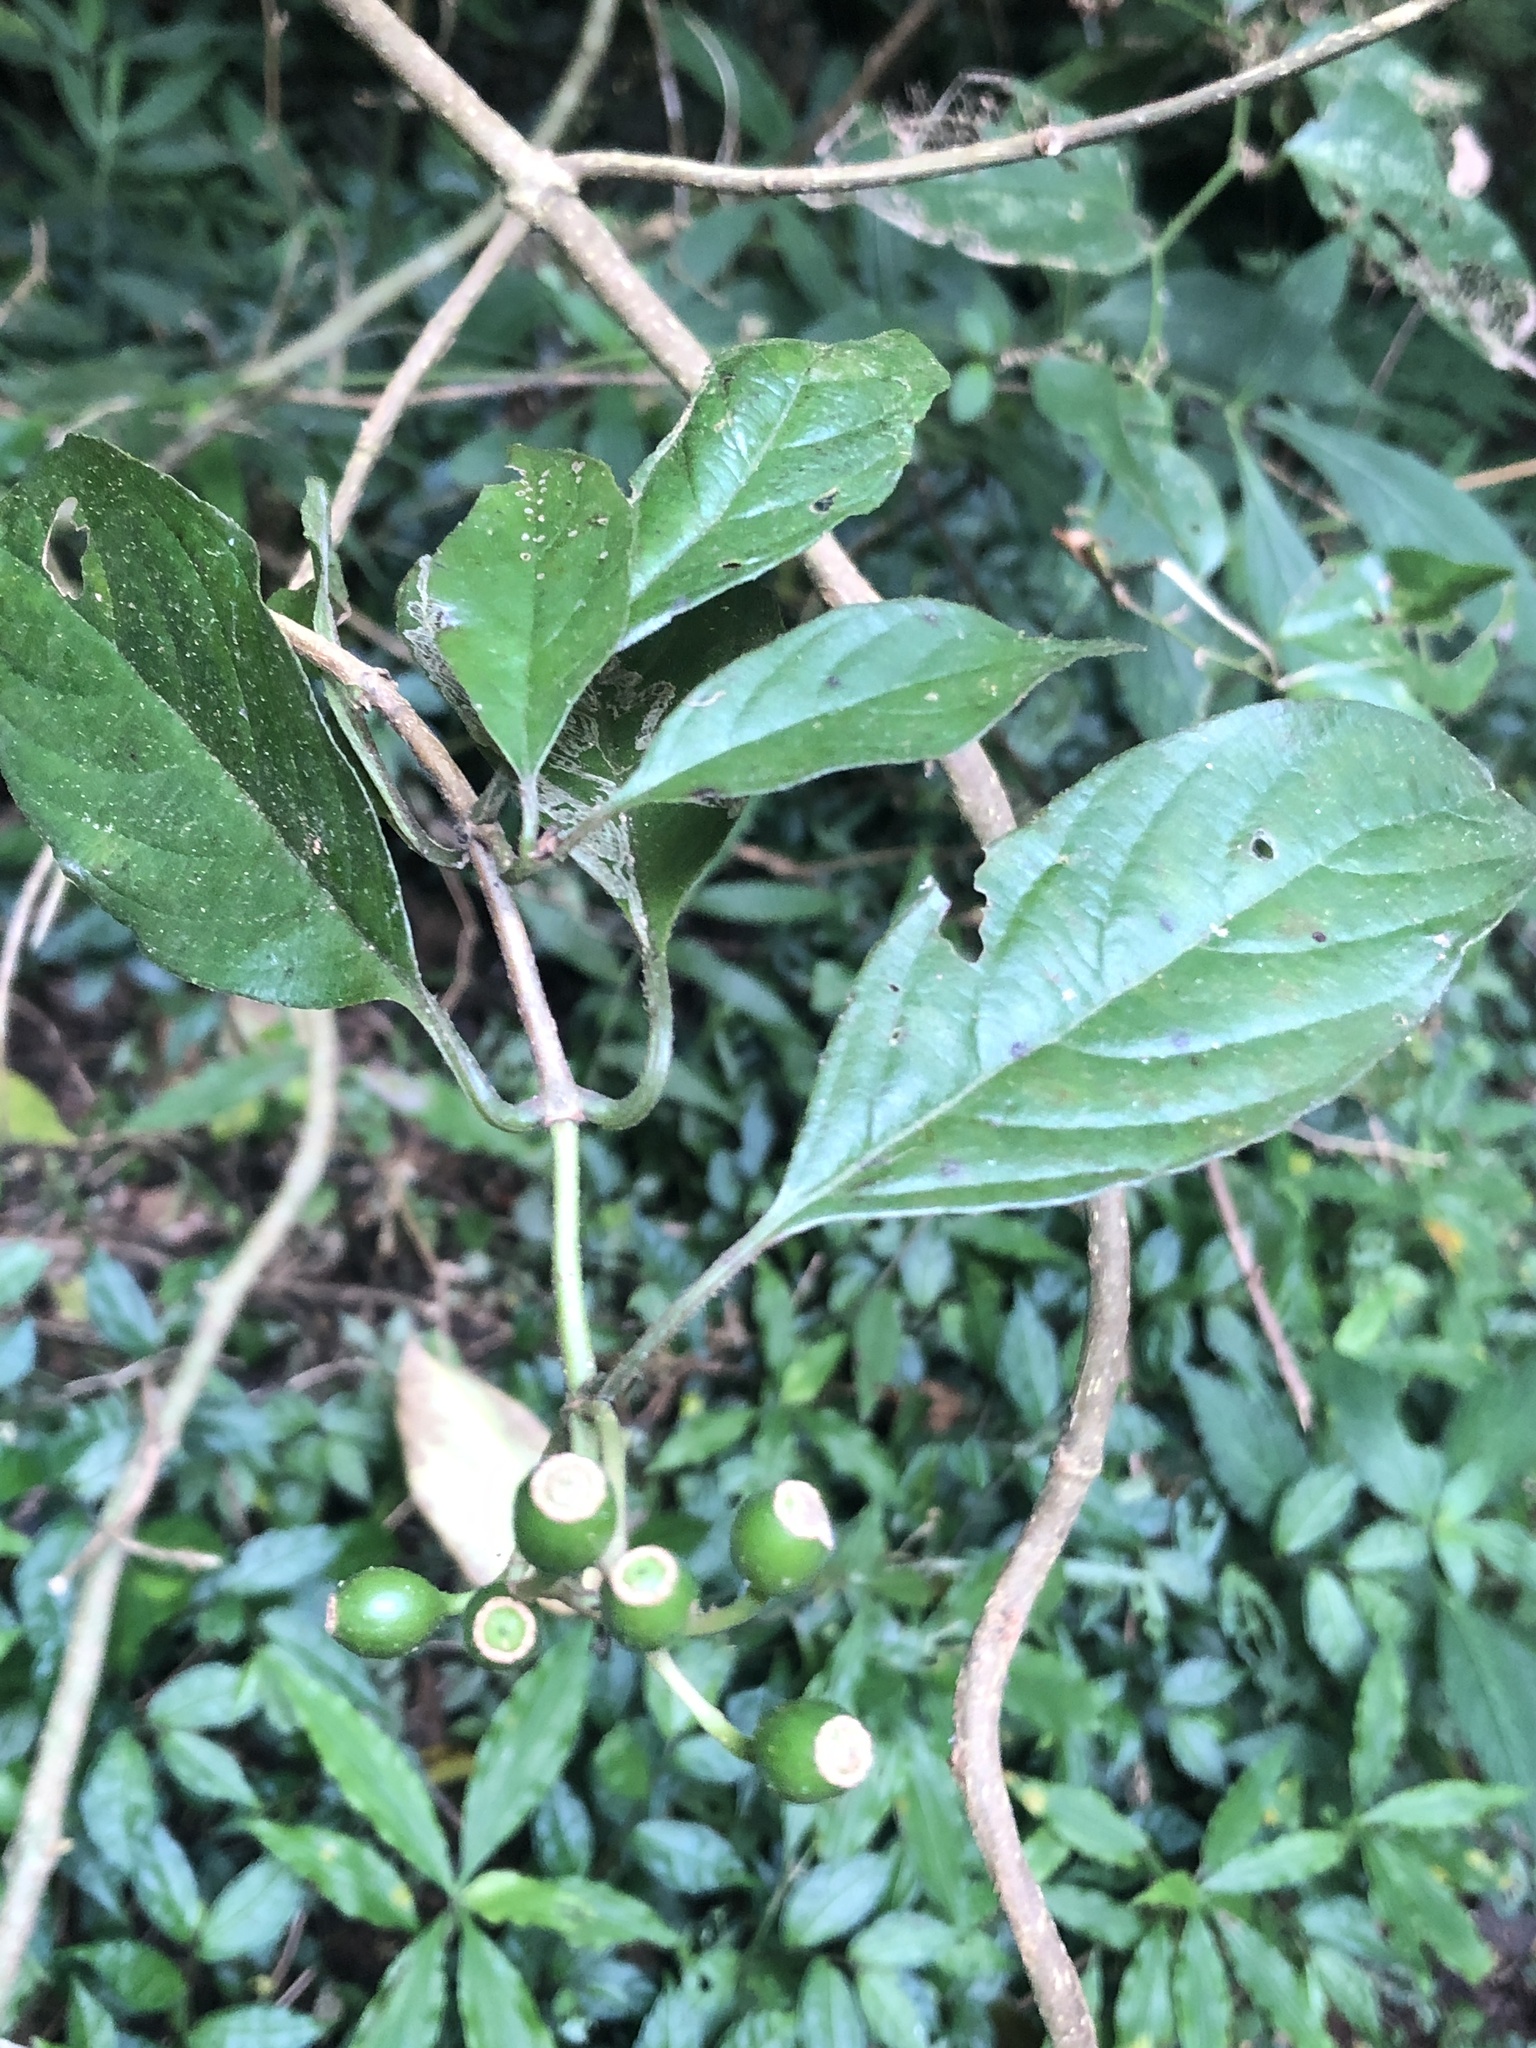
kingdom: Plantae
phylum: Tracheophyta
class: Magnoliopsida
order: Gentianales
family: Rubiaceae
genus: Mussaenda
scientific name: Mussaenda parviflora
